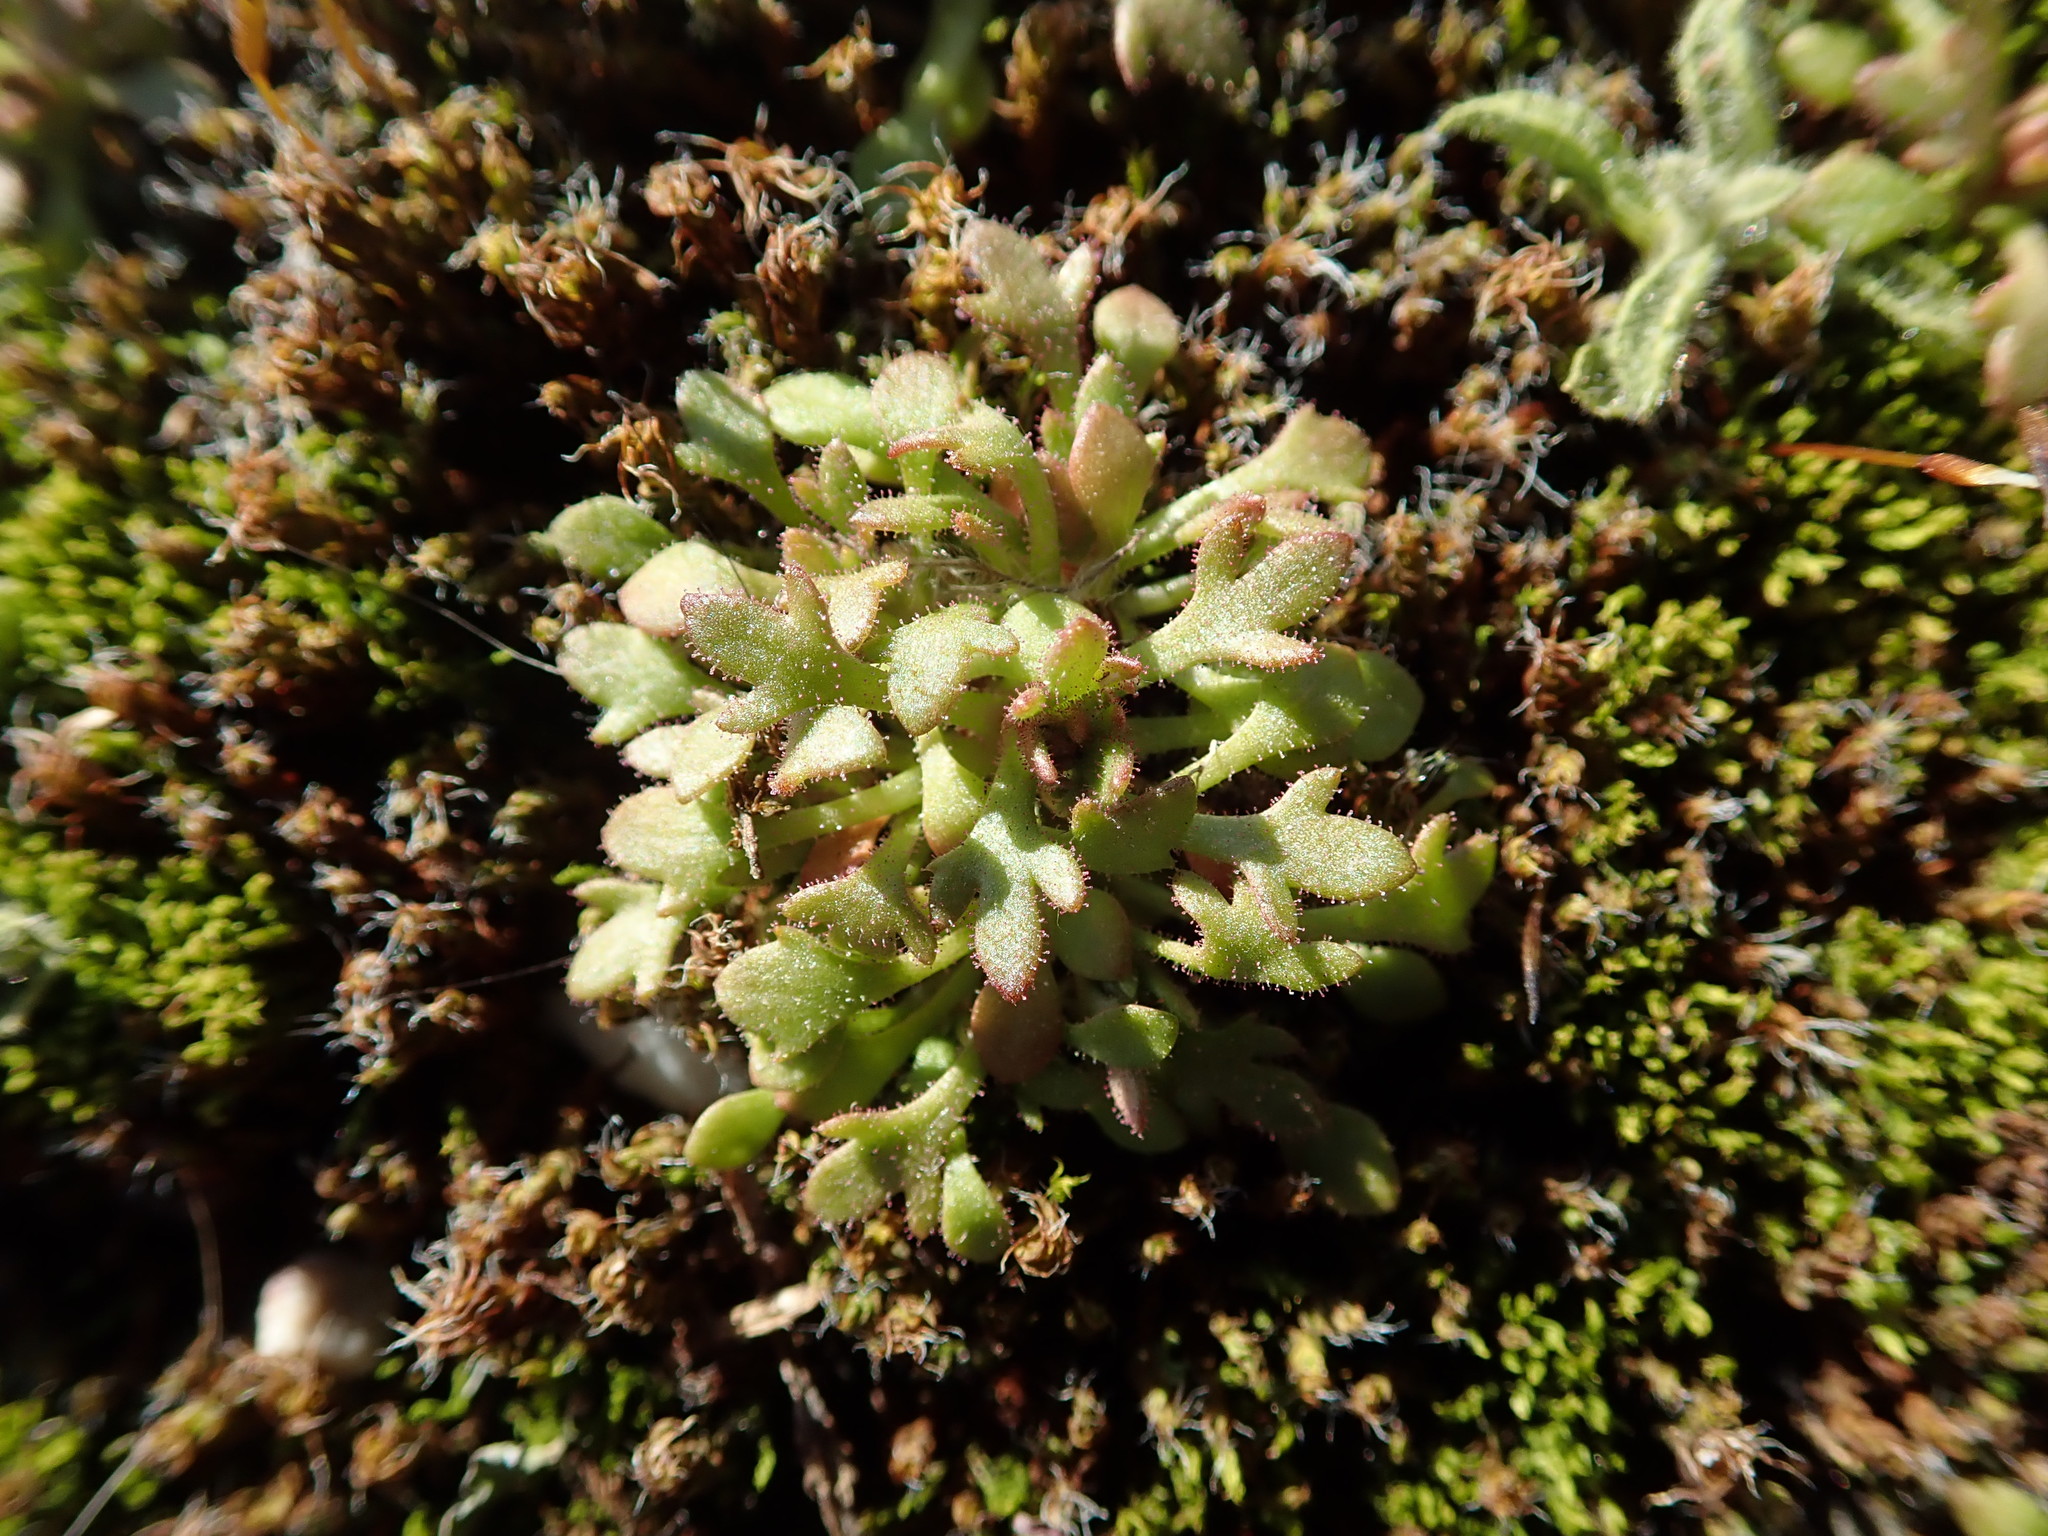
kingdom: Plantae
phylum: Tracheophyta
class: Magnoliopsida
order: Saxifragales
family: Saxifragaceae
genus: Saxifraga
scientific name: Saxifraga tridactylites
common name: Rue-leaved saxifrage
